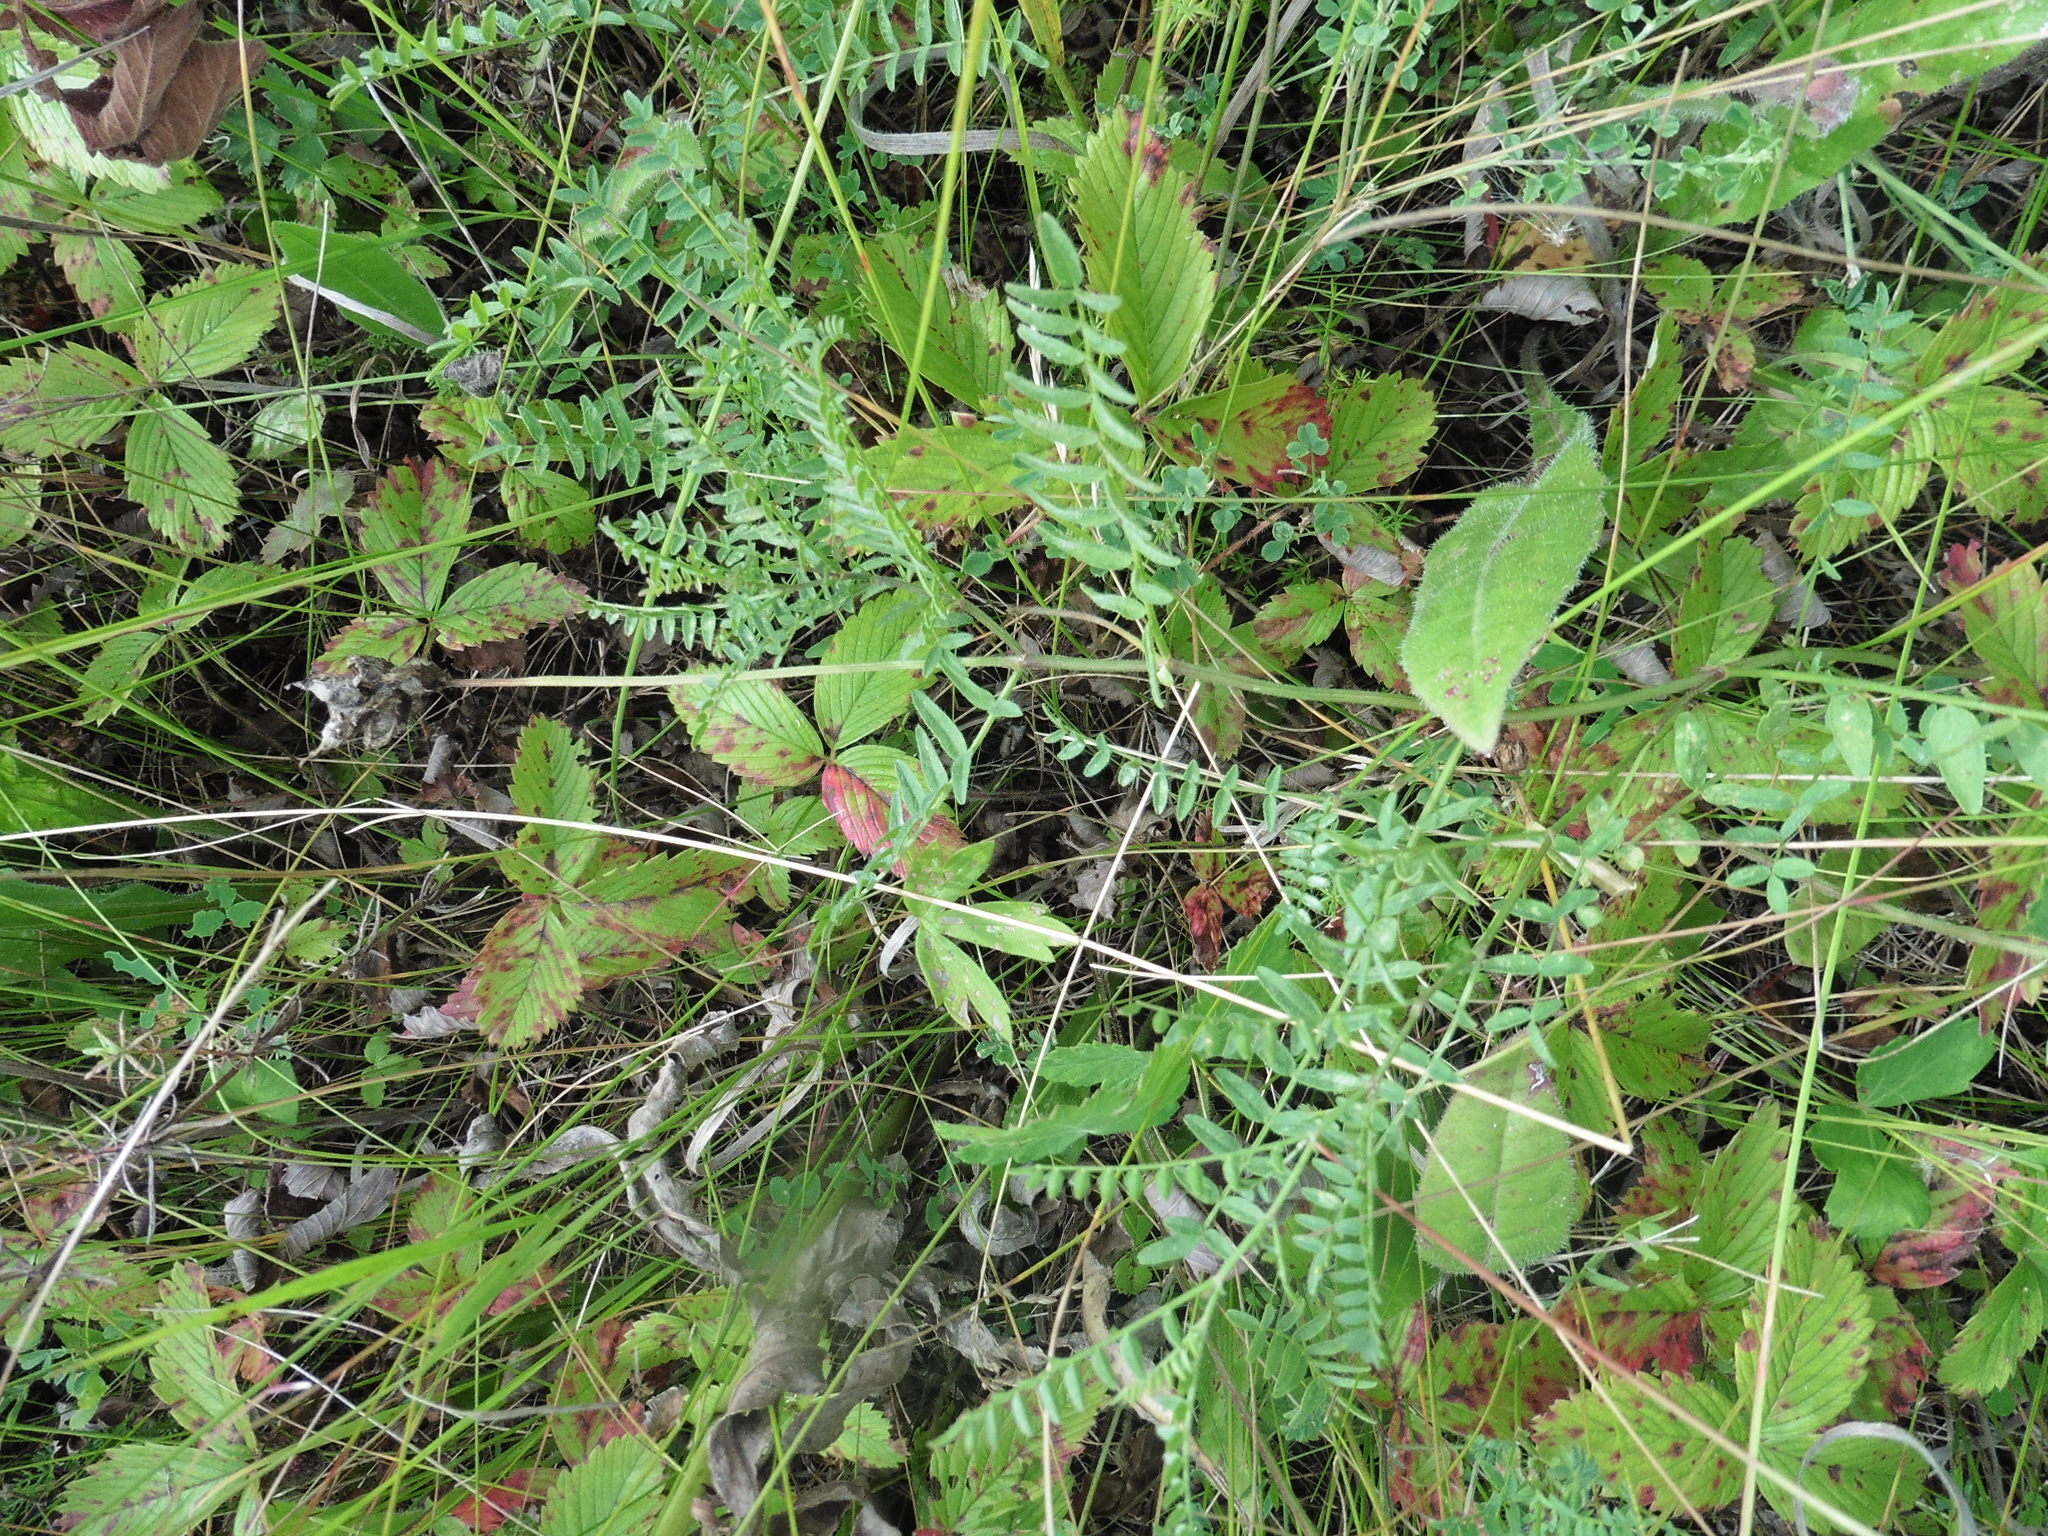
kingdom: Plantae
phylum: Tracheophyta
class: Magnoliopsida
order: Fabales
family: Fabaceae
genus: Astragalus
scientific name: Astragalus danicus
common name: Purple milk-vetch
